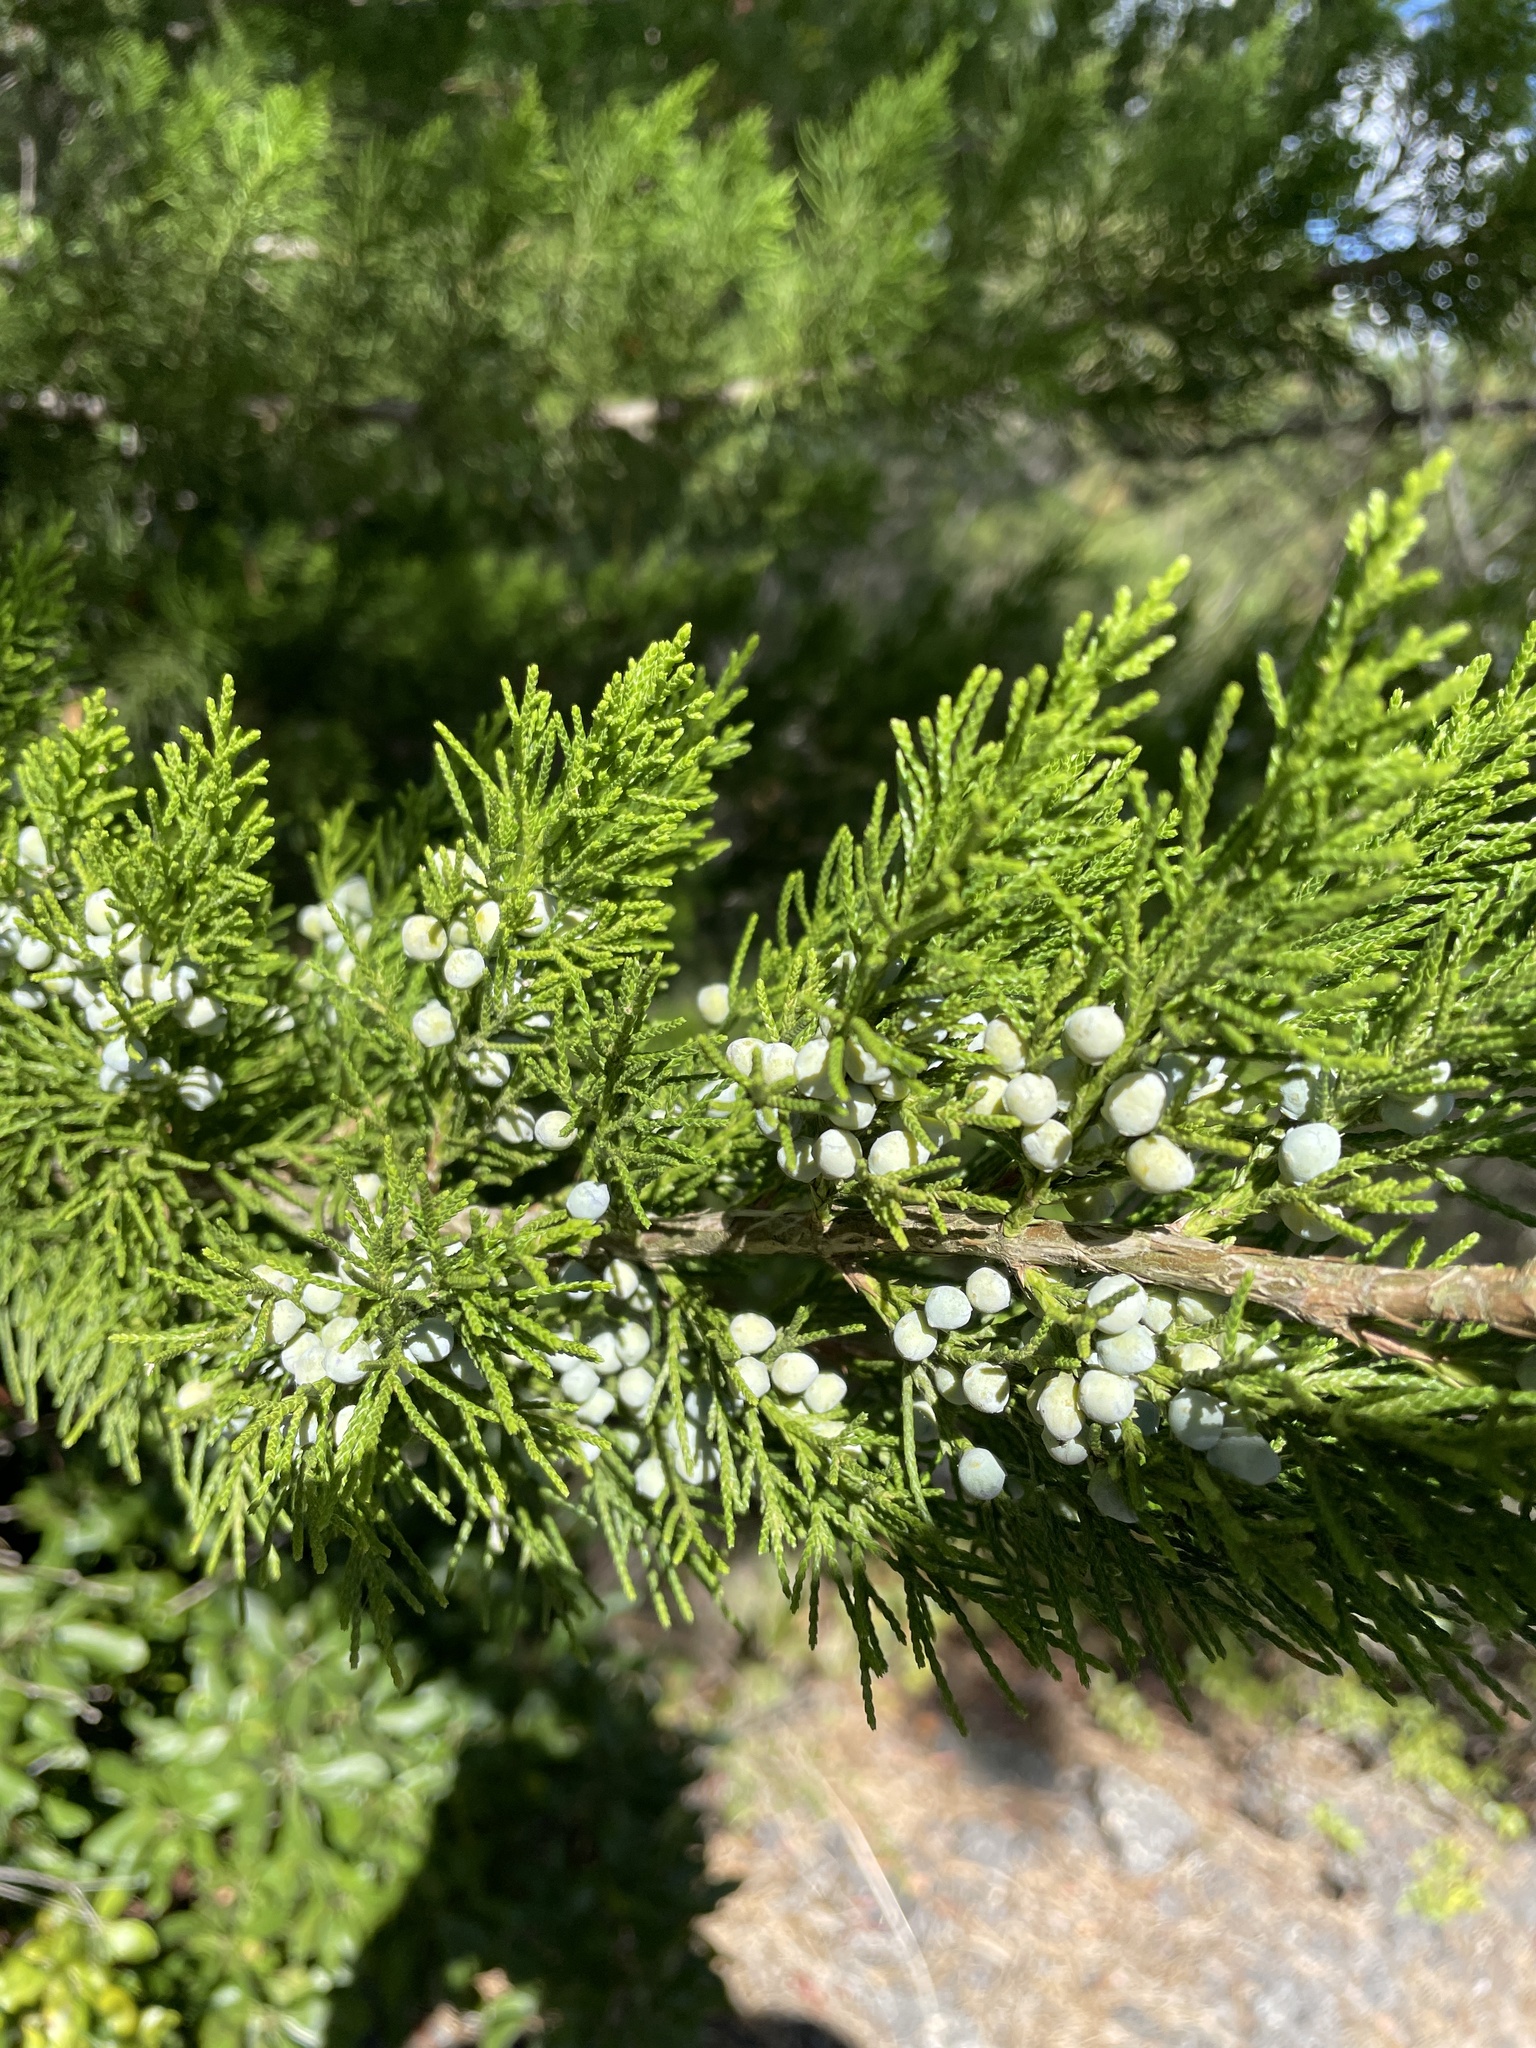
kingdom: Plantae
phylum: Tracheophyta
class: Pinopsida
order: Pinales
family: Cupressaceae
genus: Juniperus
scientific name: Juniperus virginiana
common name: Red juniper
